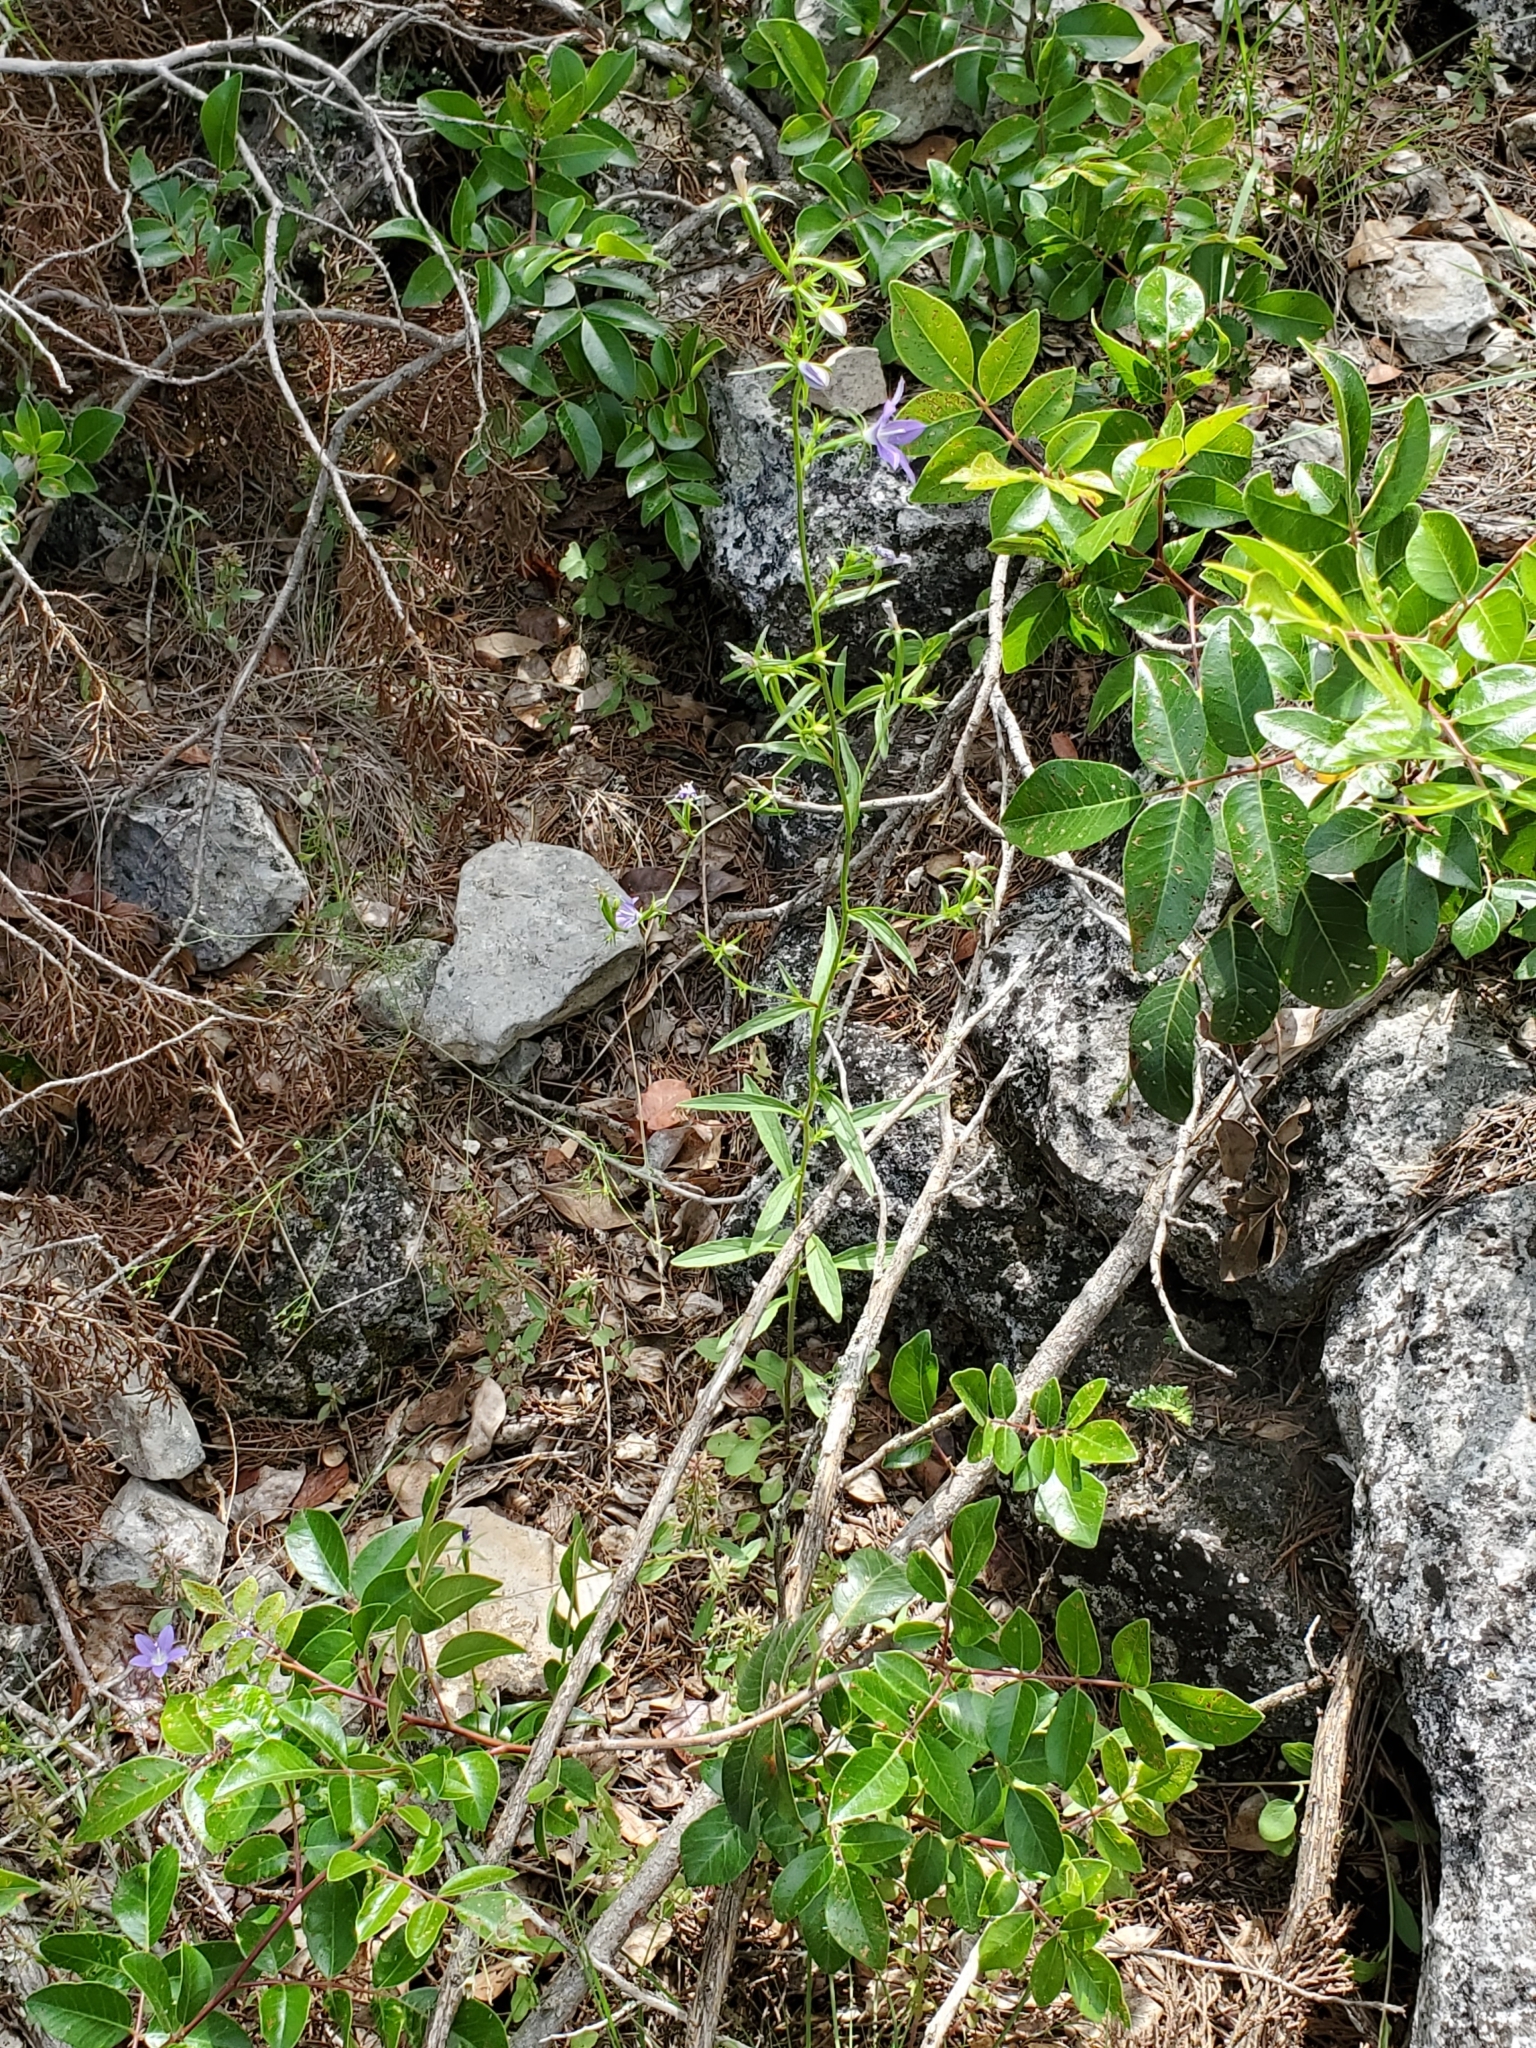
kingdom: Plantae
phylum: Tracheophyta
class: Magnoliopsida
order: Asterales
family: Campanulaceae
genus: Triodanis
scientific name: Triodanis coloradoensis
